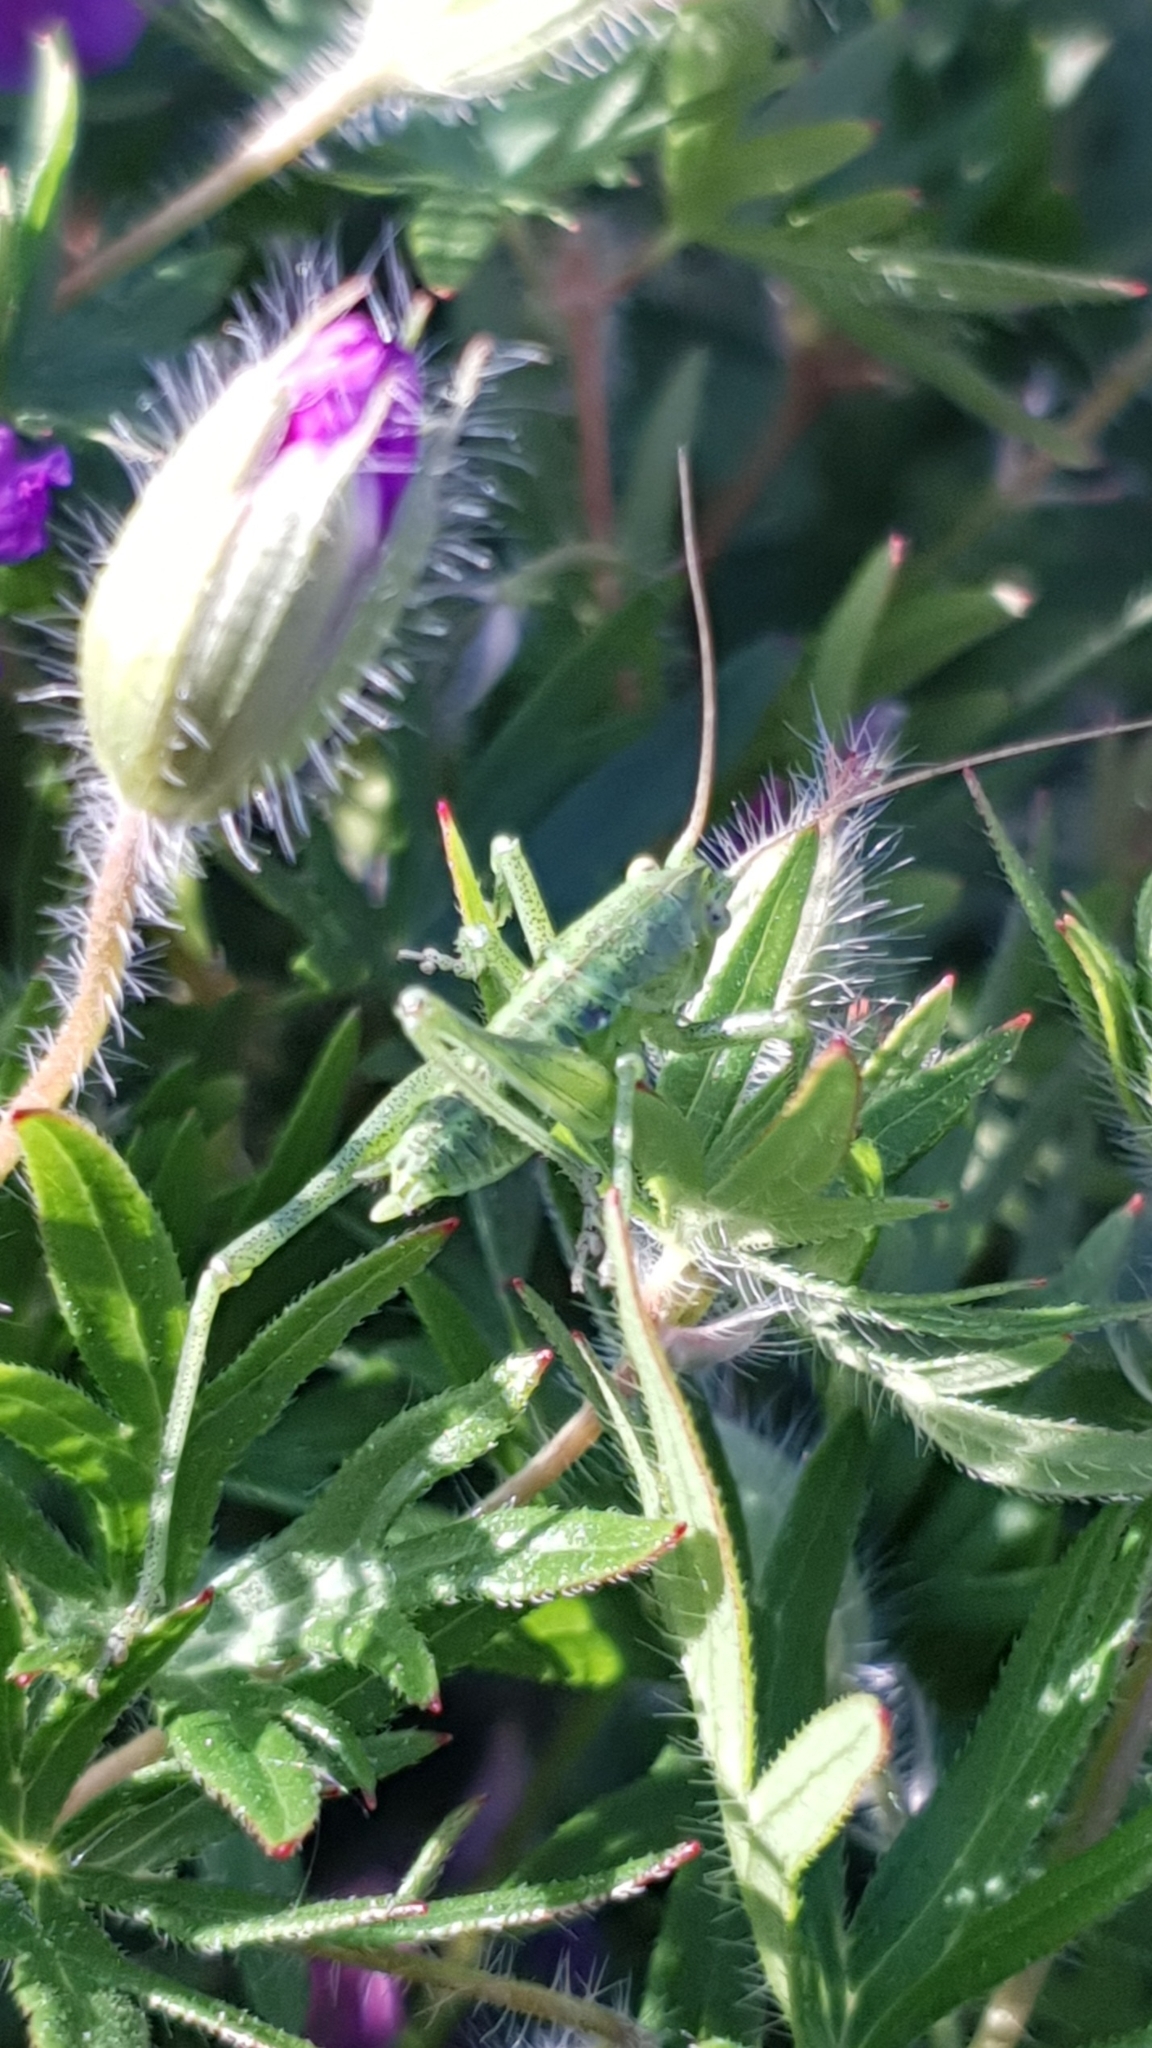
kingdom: Animalia
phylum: Arthropoda
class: Insecta
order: Orthoptera
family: Tettigoniidae
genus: Tettigonia
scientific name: Tettigonia viridissima
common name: Great green bush-cricket
